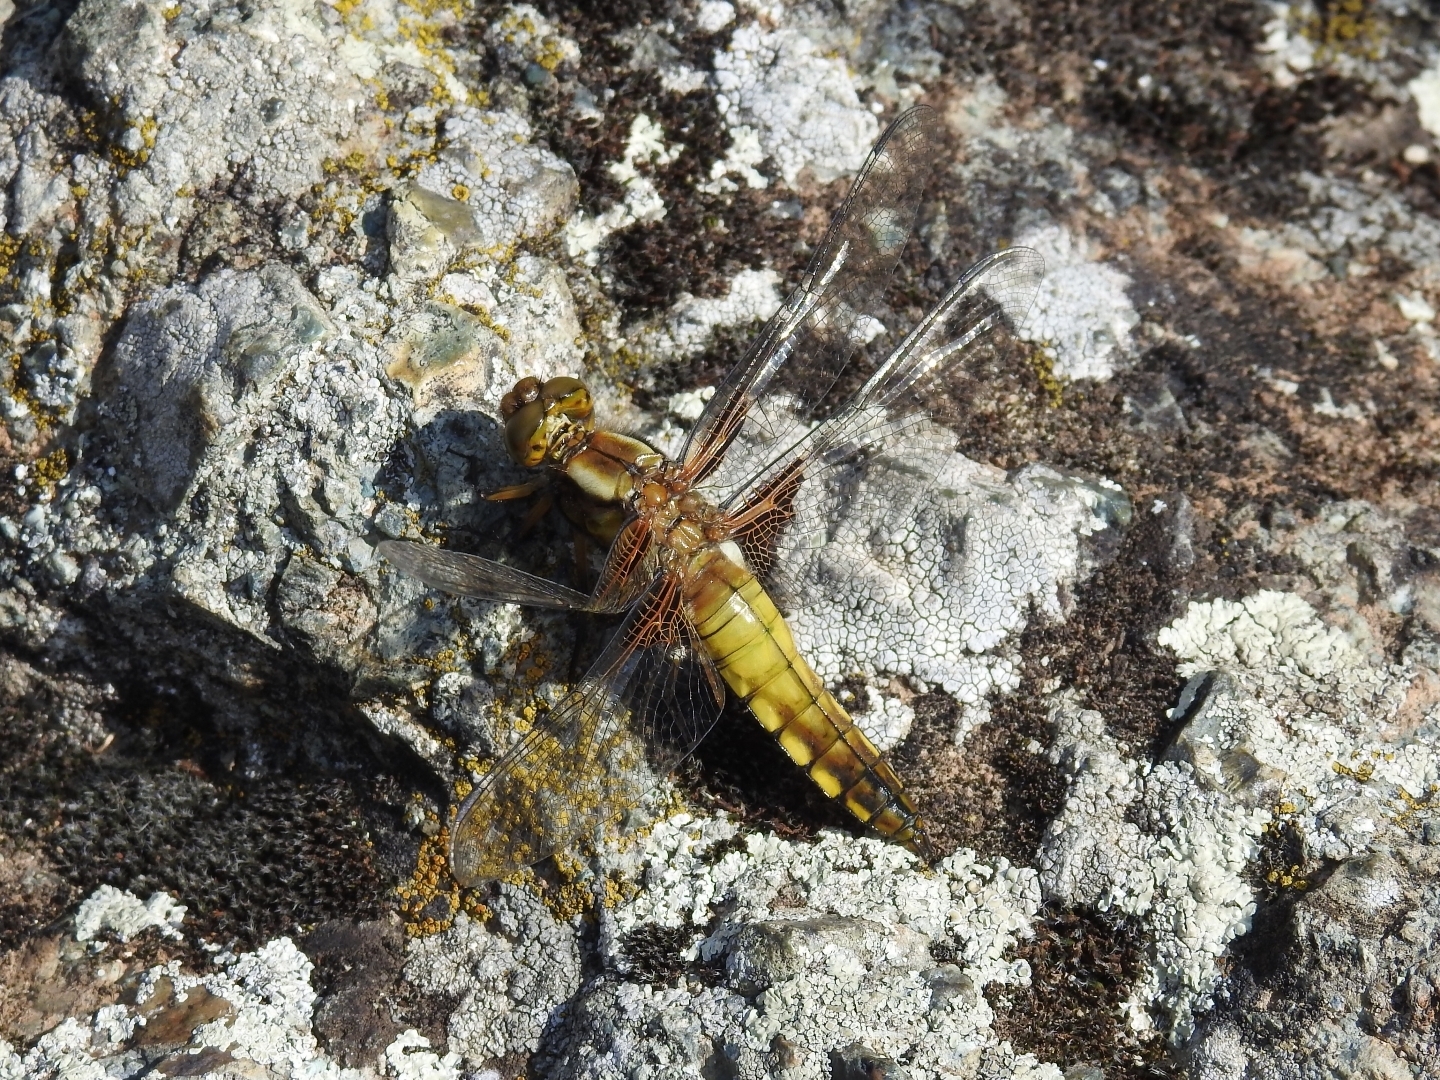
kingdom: Animalia
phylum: Arthropoda
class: Insecta
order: Odonata
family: Libellulidae
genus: Libellula
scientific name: Libellula depressa
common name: Broad-bodied chaser
